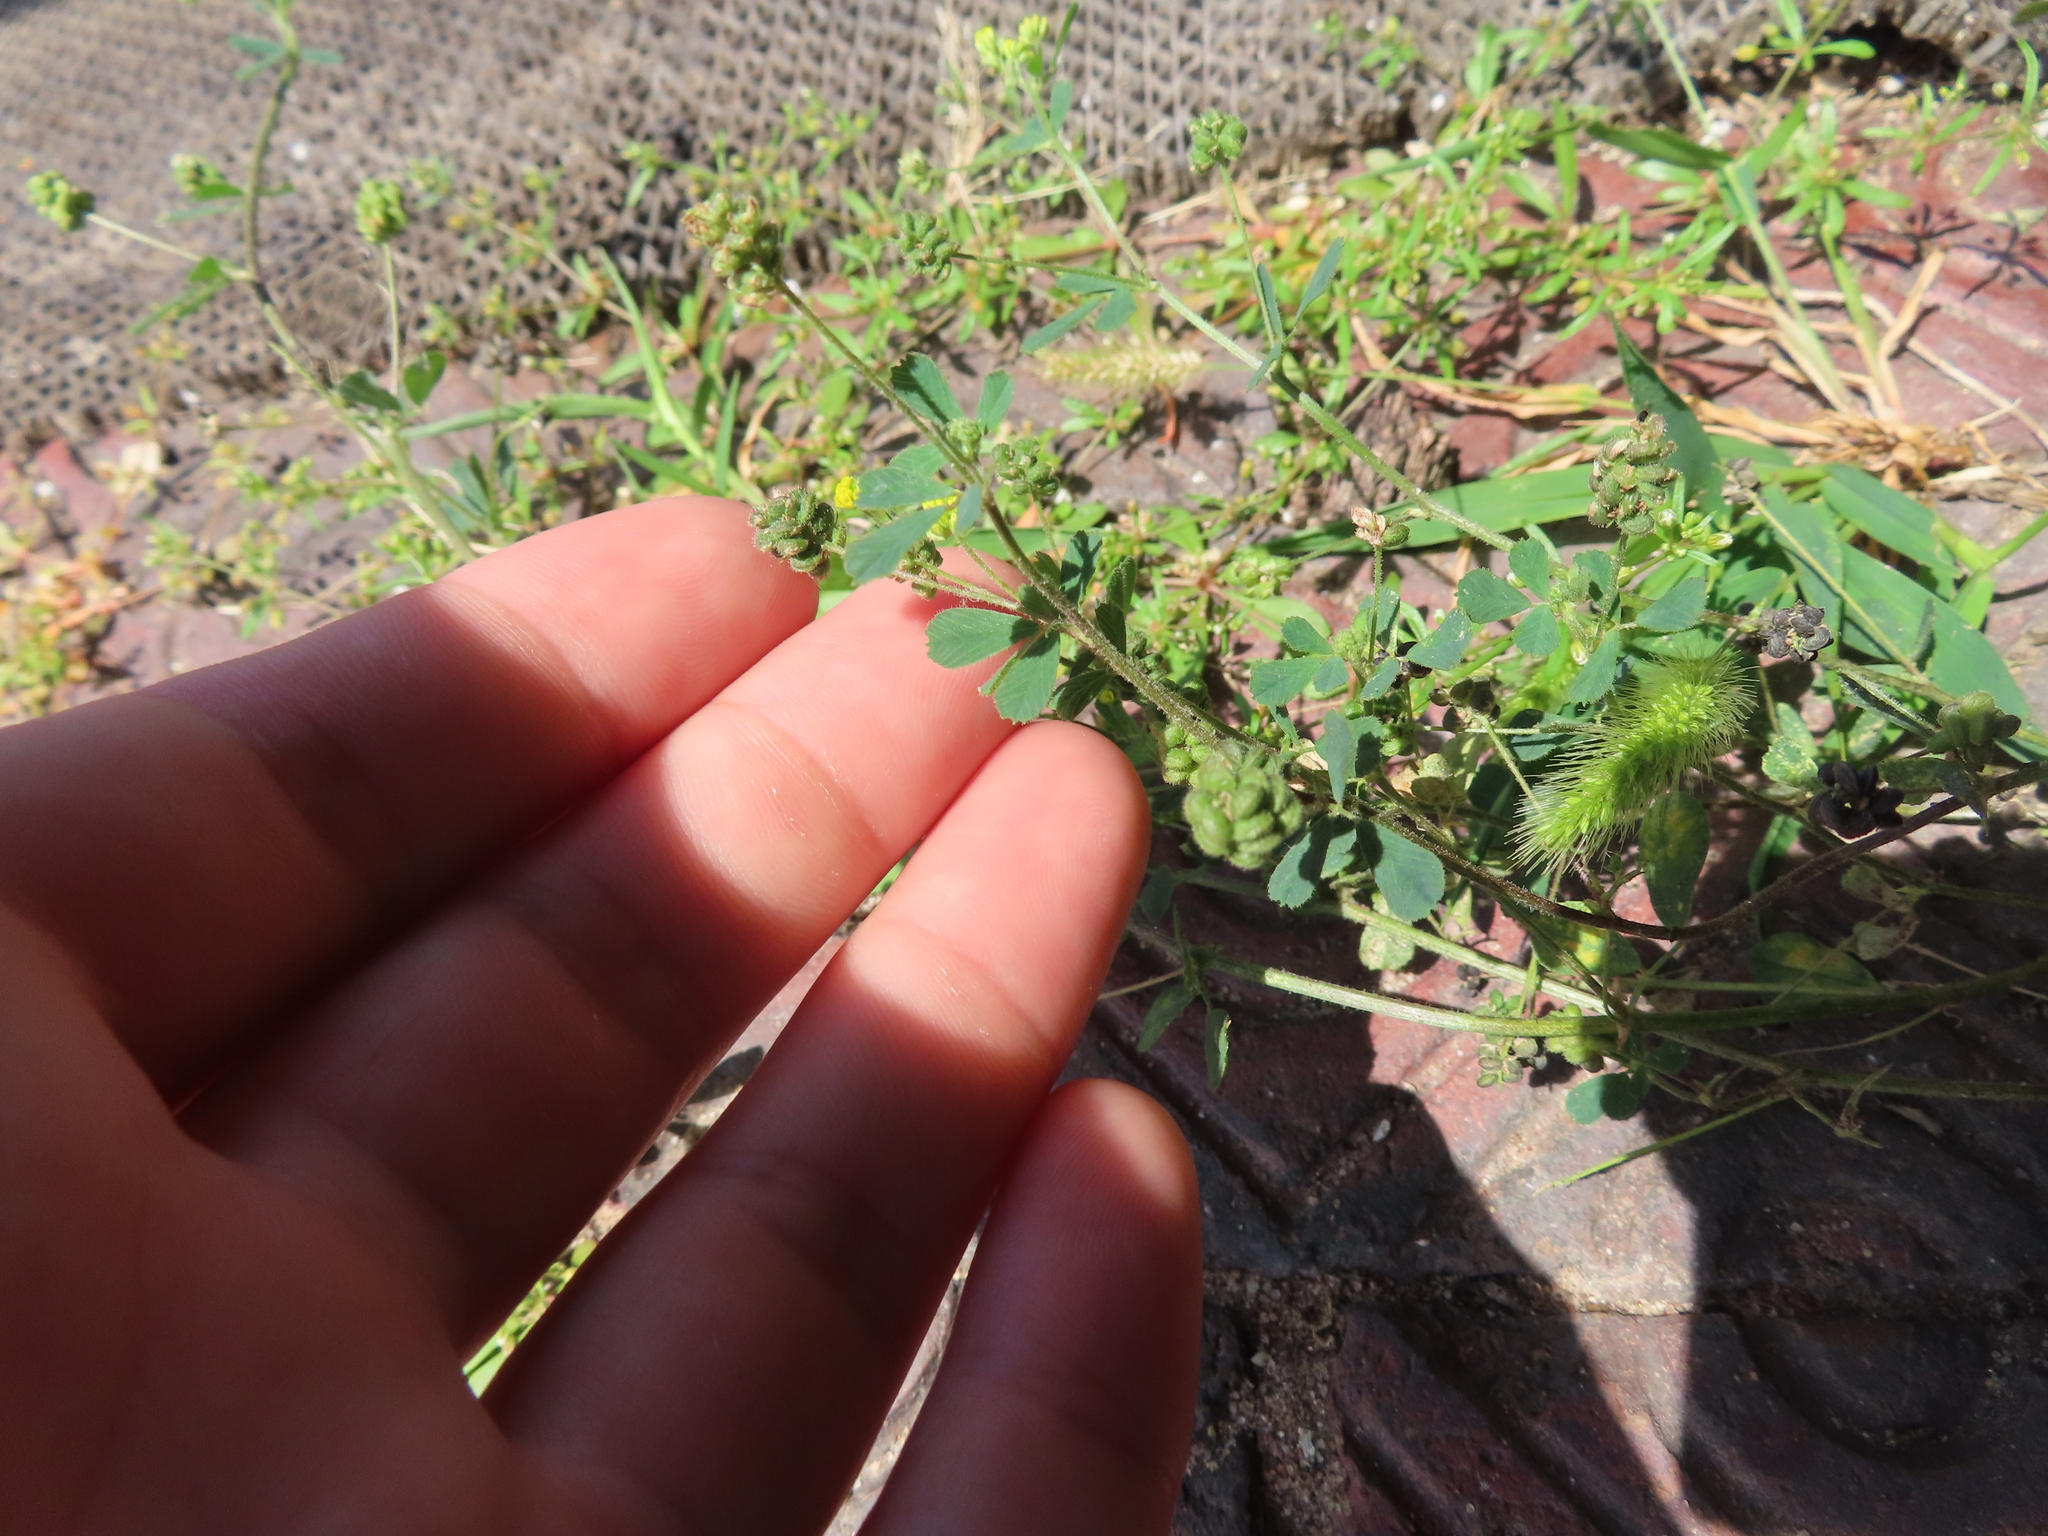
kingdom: Plantae
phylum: Tracheophyta
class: Magnoliopsida
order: Fabales
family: Fabaceae
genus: Medicago
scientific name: Medicago lupulina
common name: Black medick
